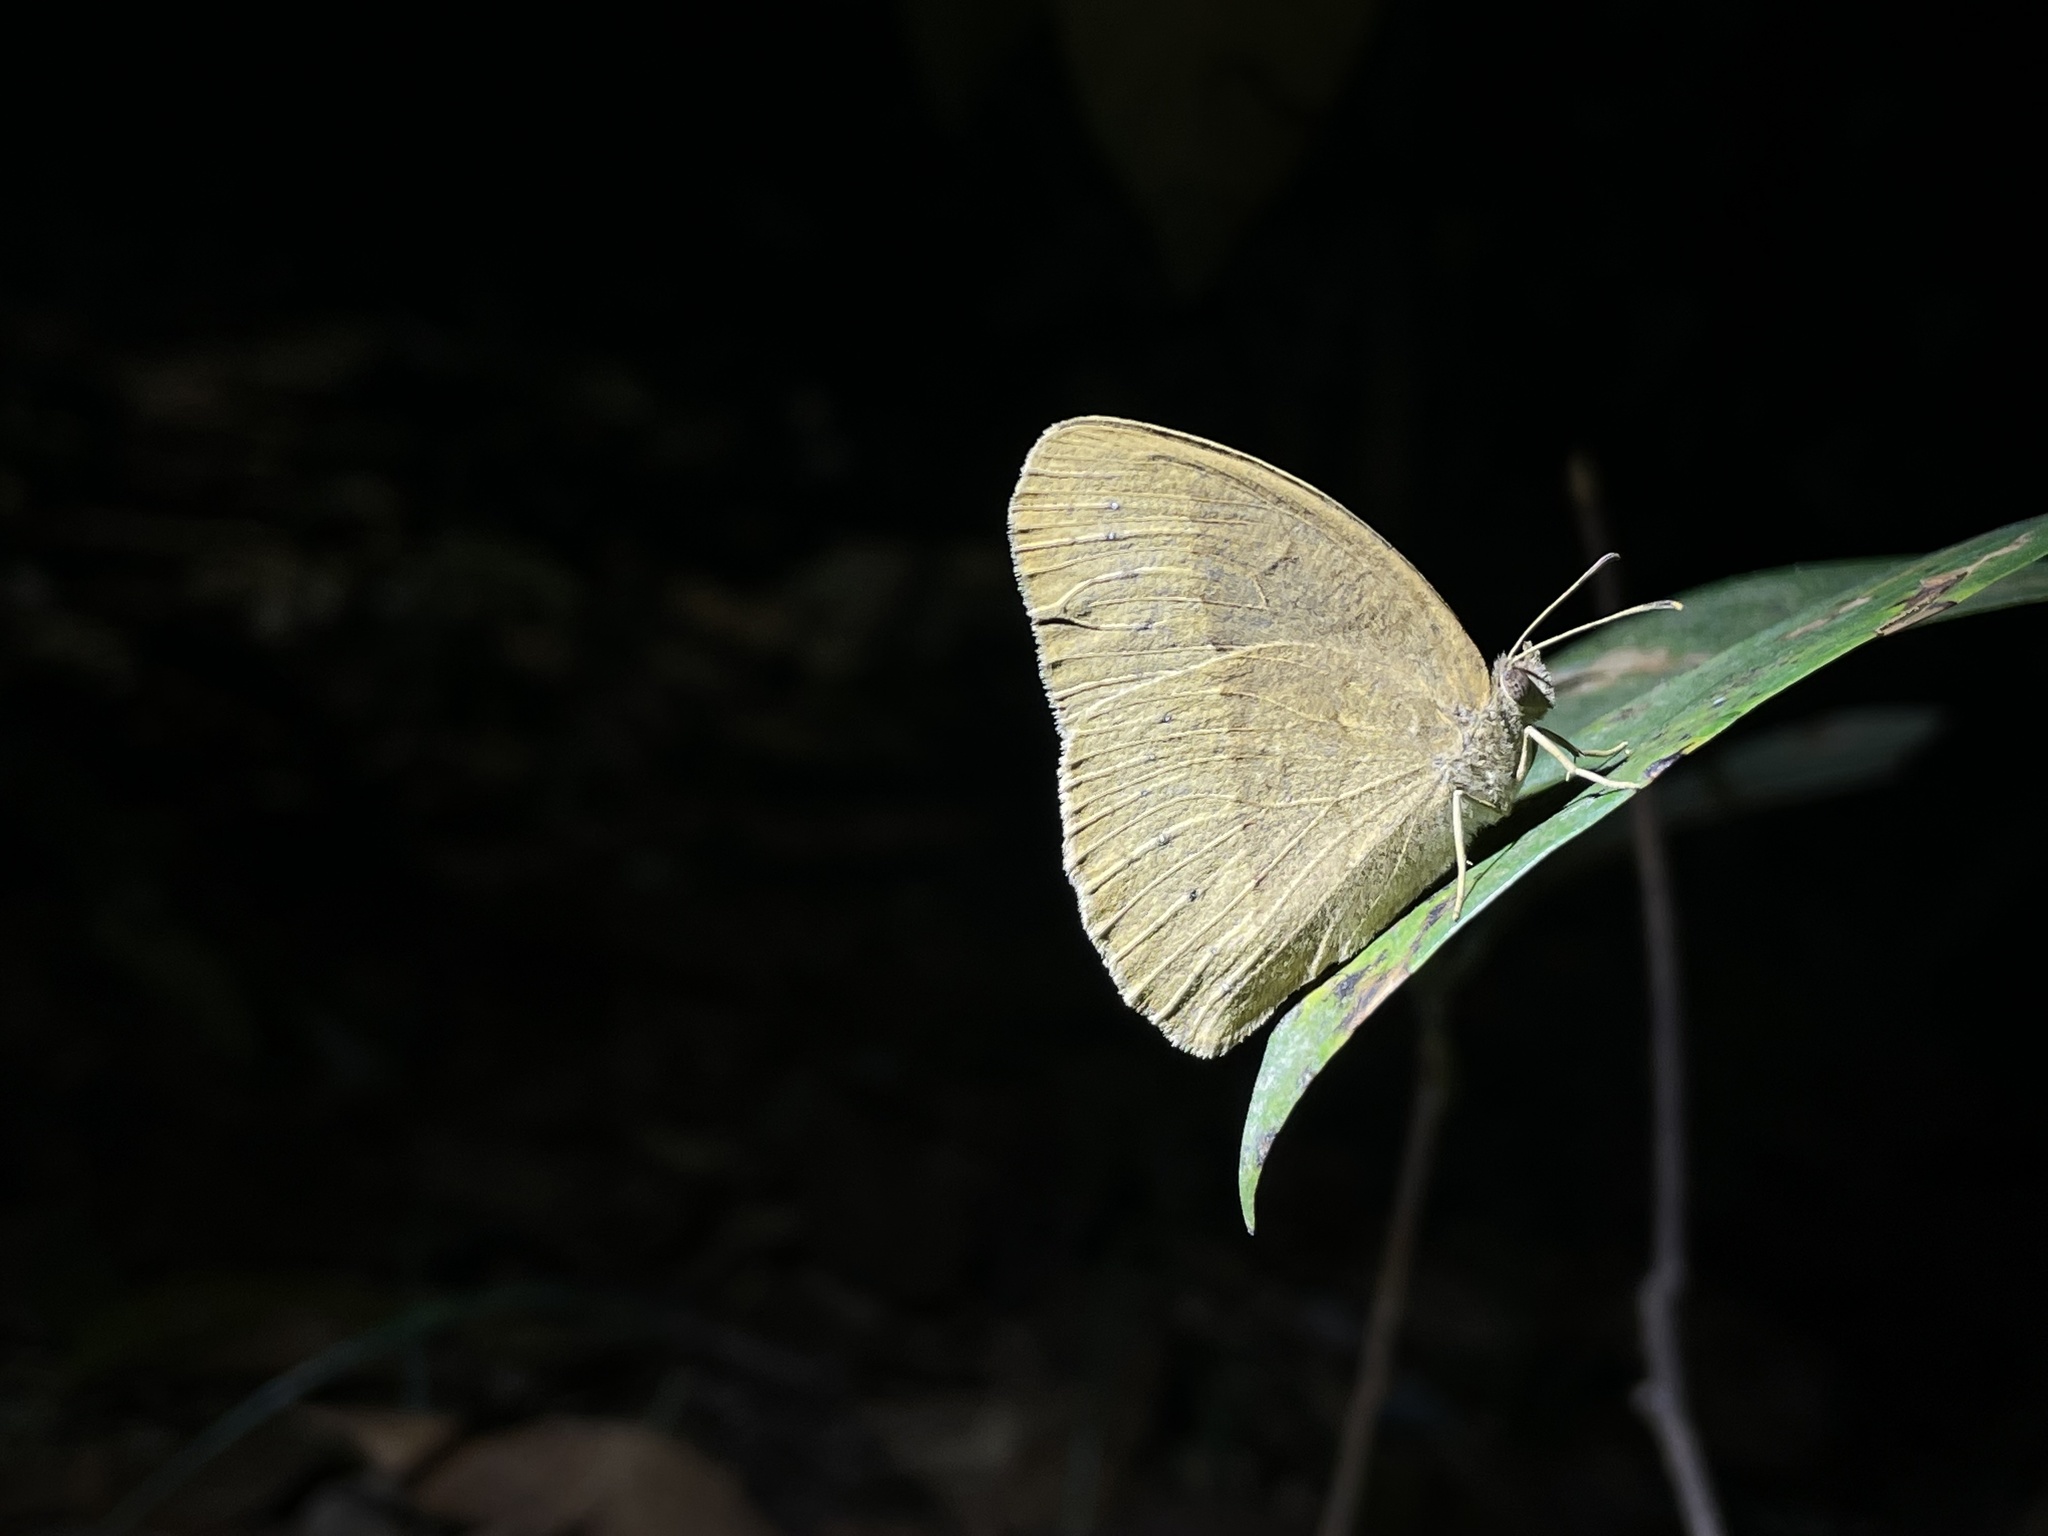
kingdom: Animalia
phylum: Arthropoda
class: Insecta
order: Lepidoptera
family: Nymphalidae
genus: Mycalesis
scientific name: Mycalesis mineus
